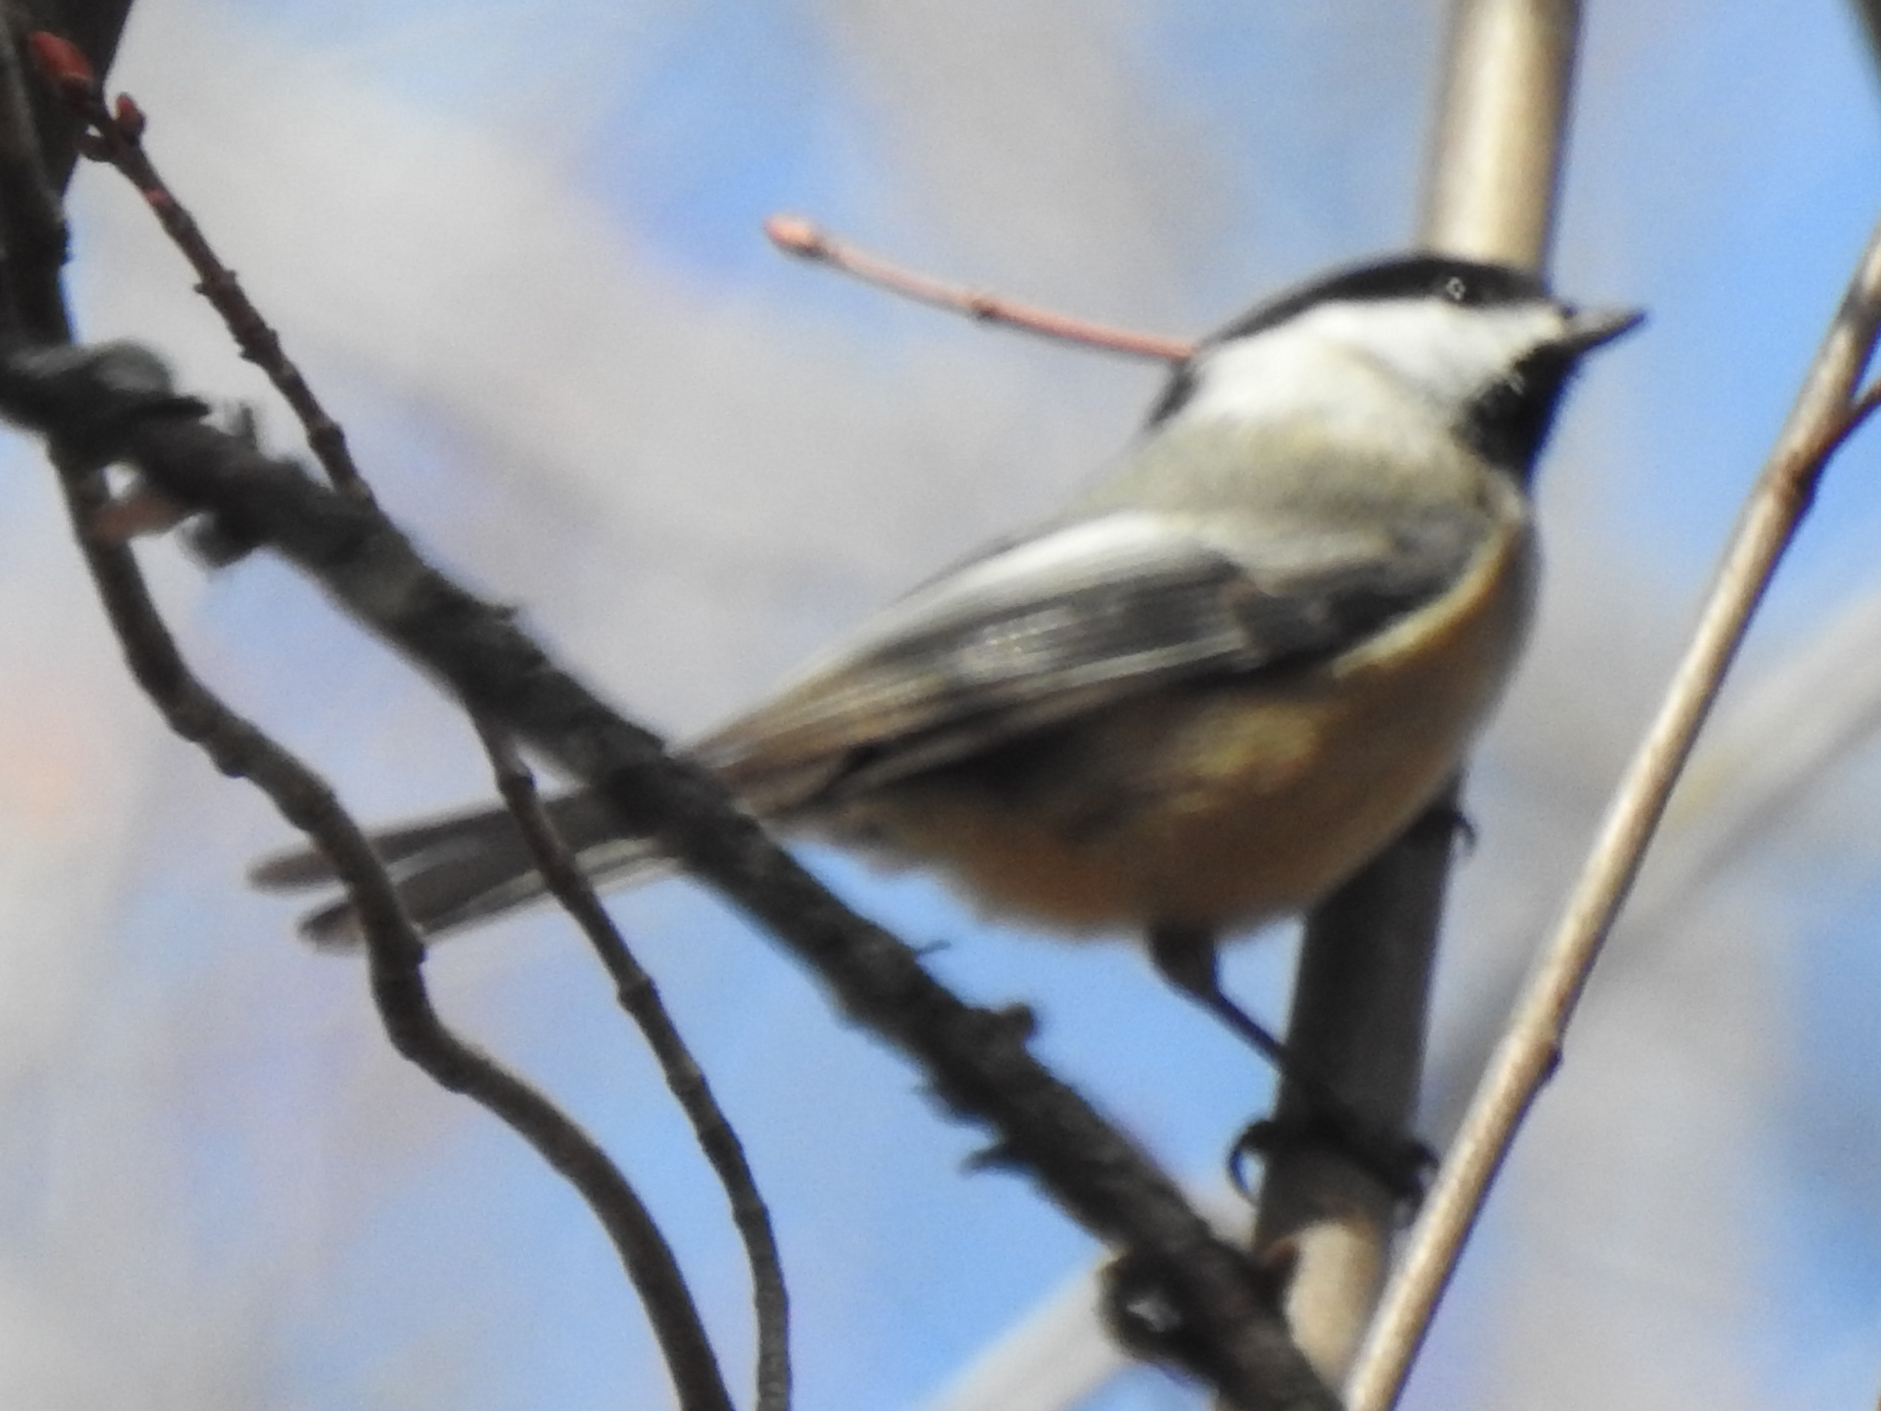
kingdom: Animalia
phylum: Chordata
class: Aves
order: Passeriformes
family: Paridae
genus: Poecile
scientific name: Poecile atricapillus
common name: Black-capped chickadee
